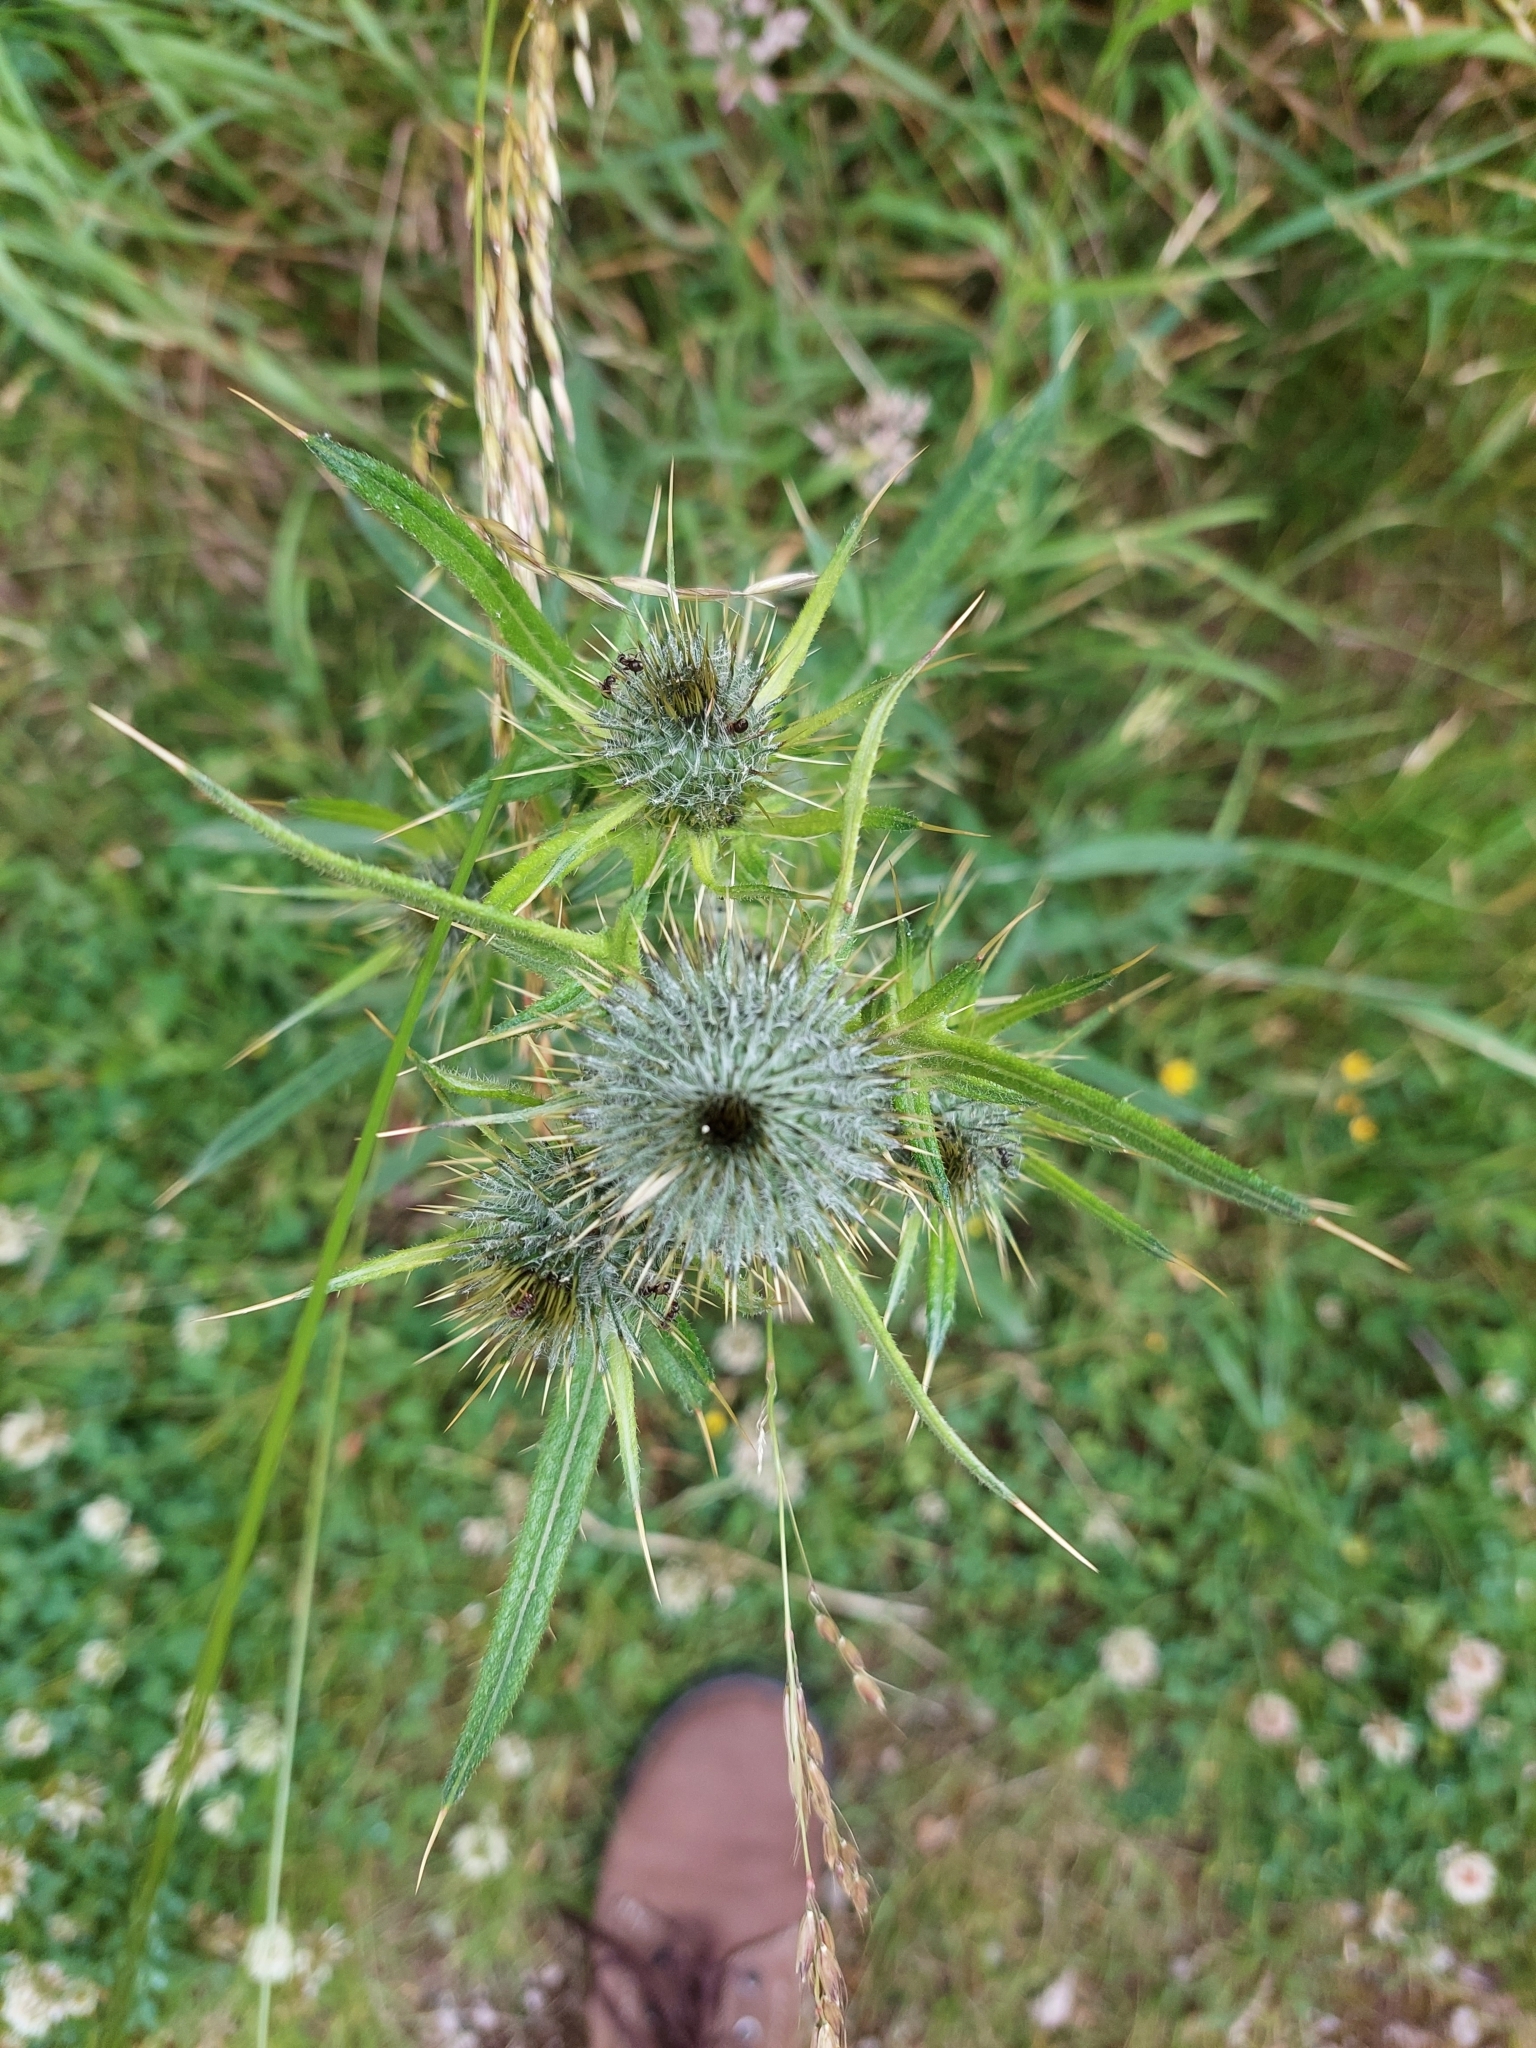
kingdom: Plantae
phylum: Tracheophyta
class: Magnoliopsida
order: Asterales
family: Asteraceae
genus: Cirsium
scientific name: Cirsium vulgare
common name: Bull thistle
